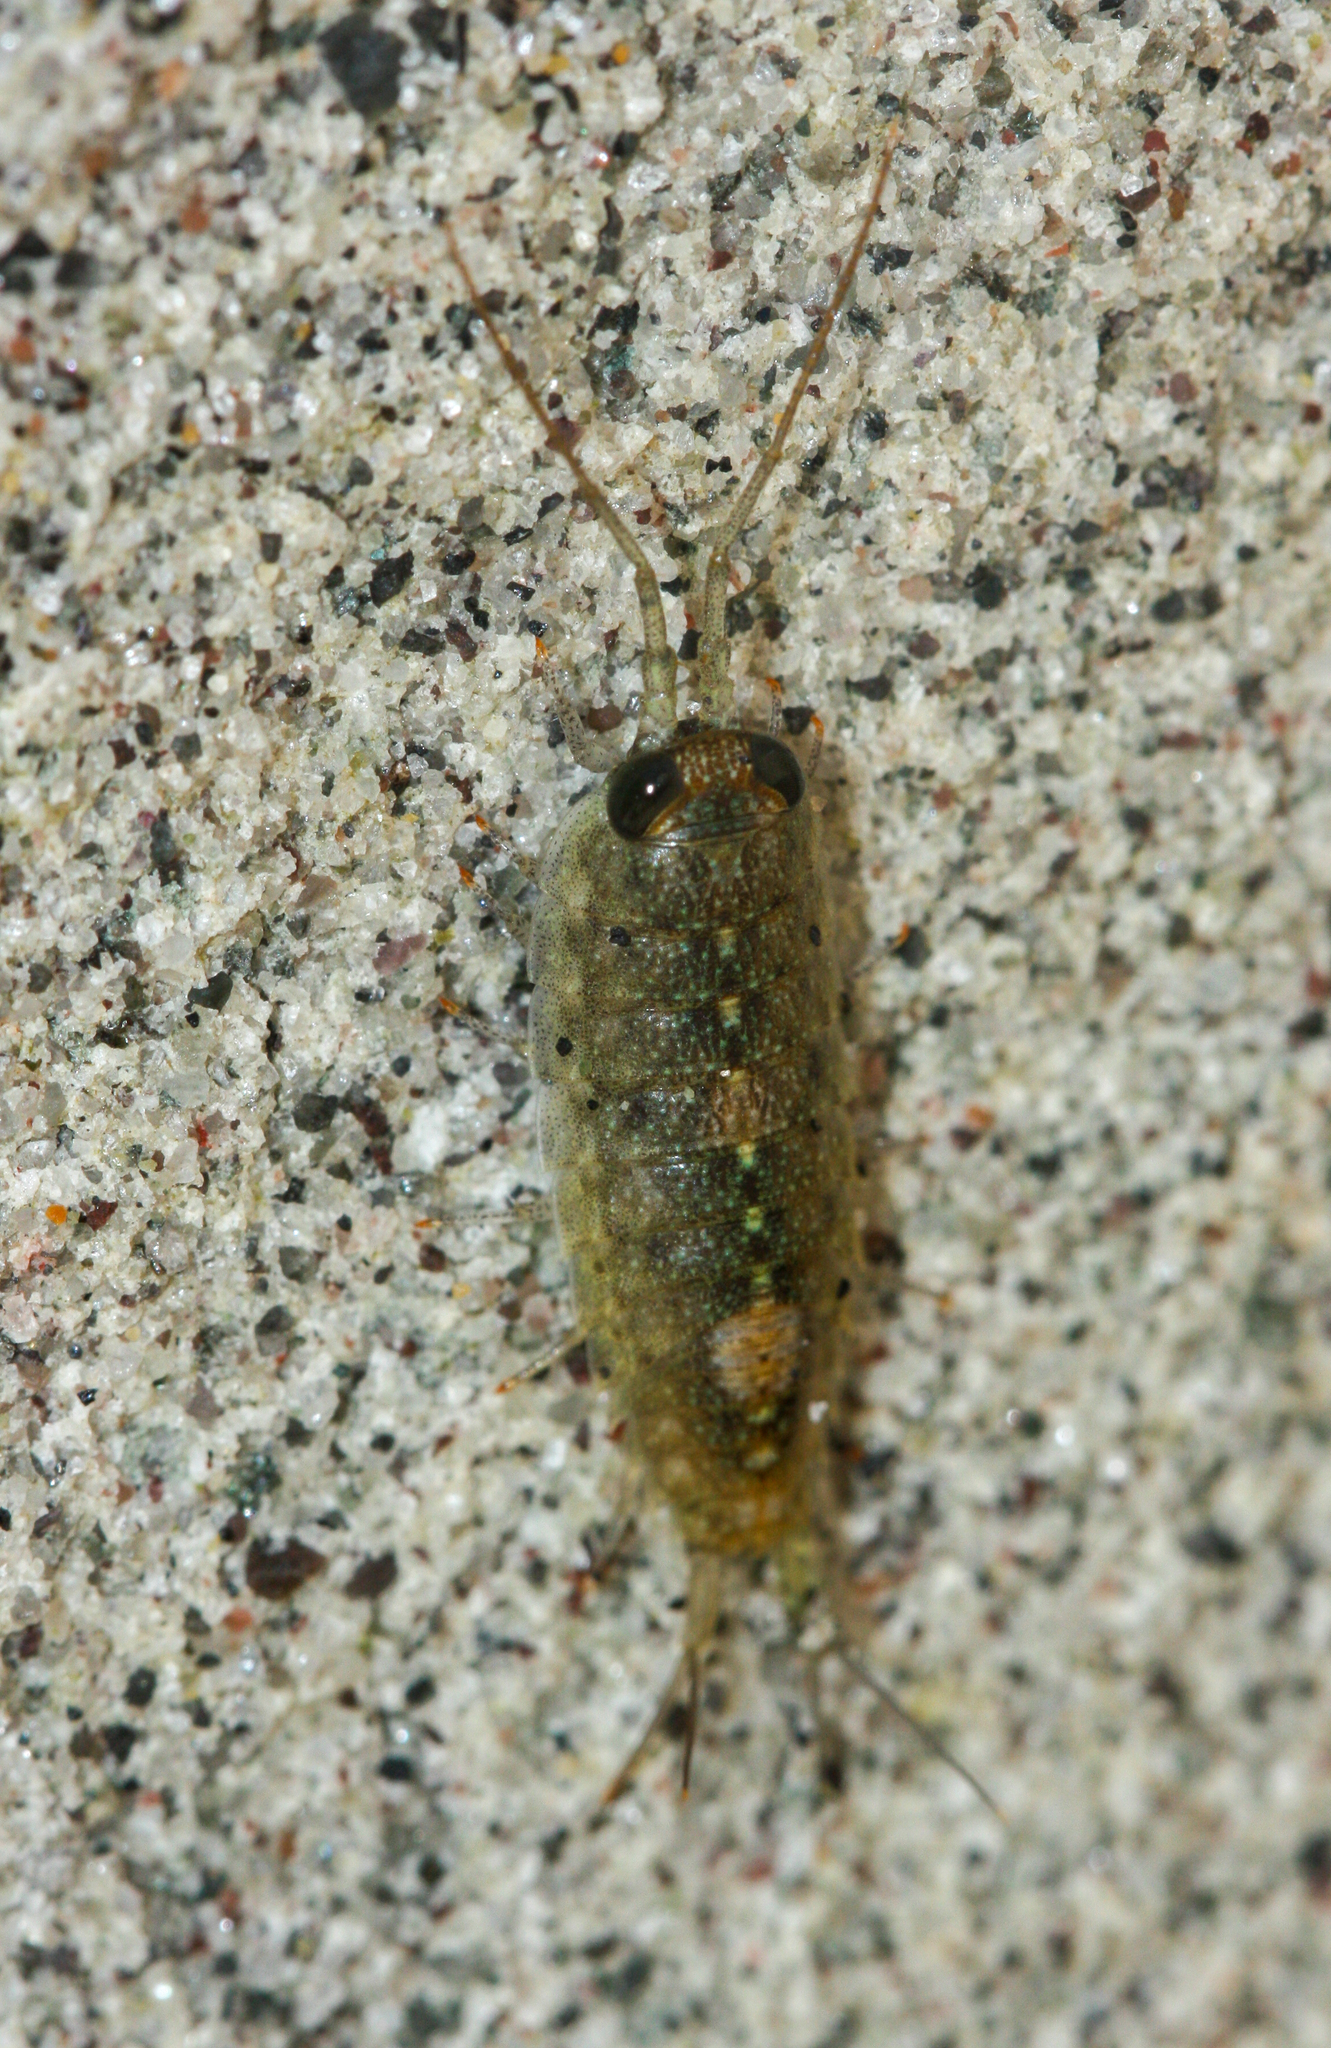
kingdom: Animalia
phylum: Arthropoda
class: Malacostraca
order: Isopoda
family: Ligiidae
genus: Ligia
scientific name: Ligia occidentalis
